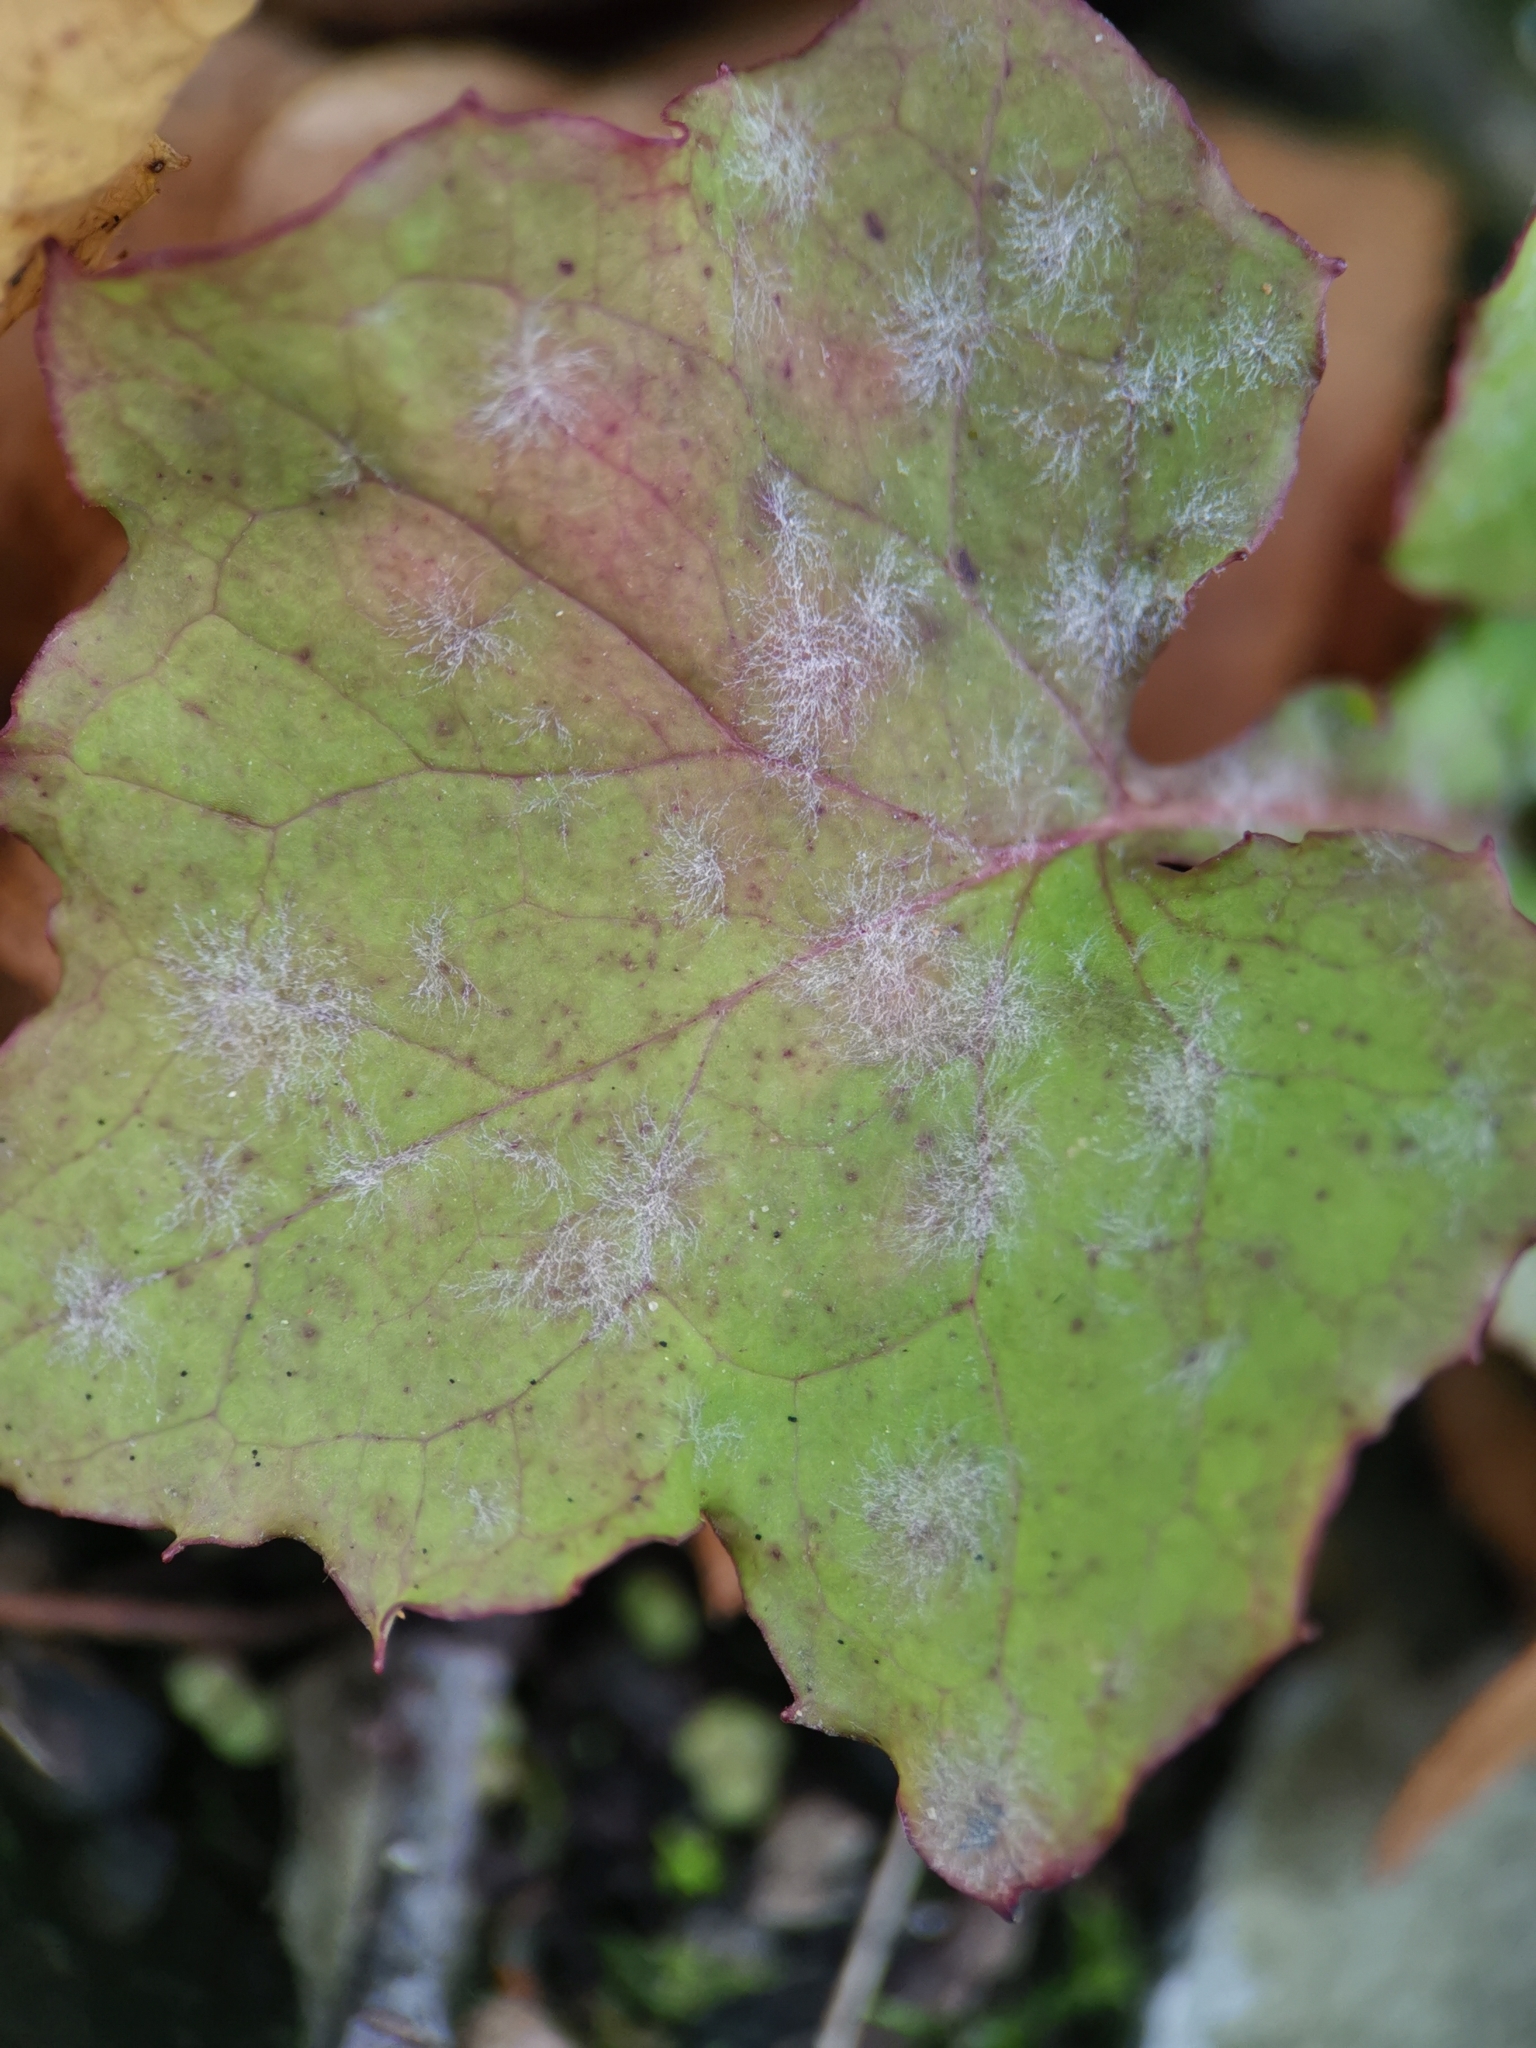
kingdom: Fungi
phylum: Ascomycota
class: Leotiomycetes
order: Helotiales
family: Erysiphaceae
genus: Golovinomyces
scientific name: Golovinomyces bolayi
